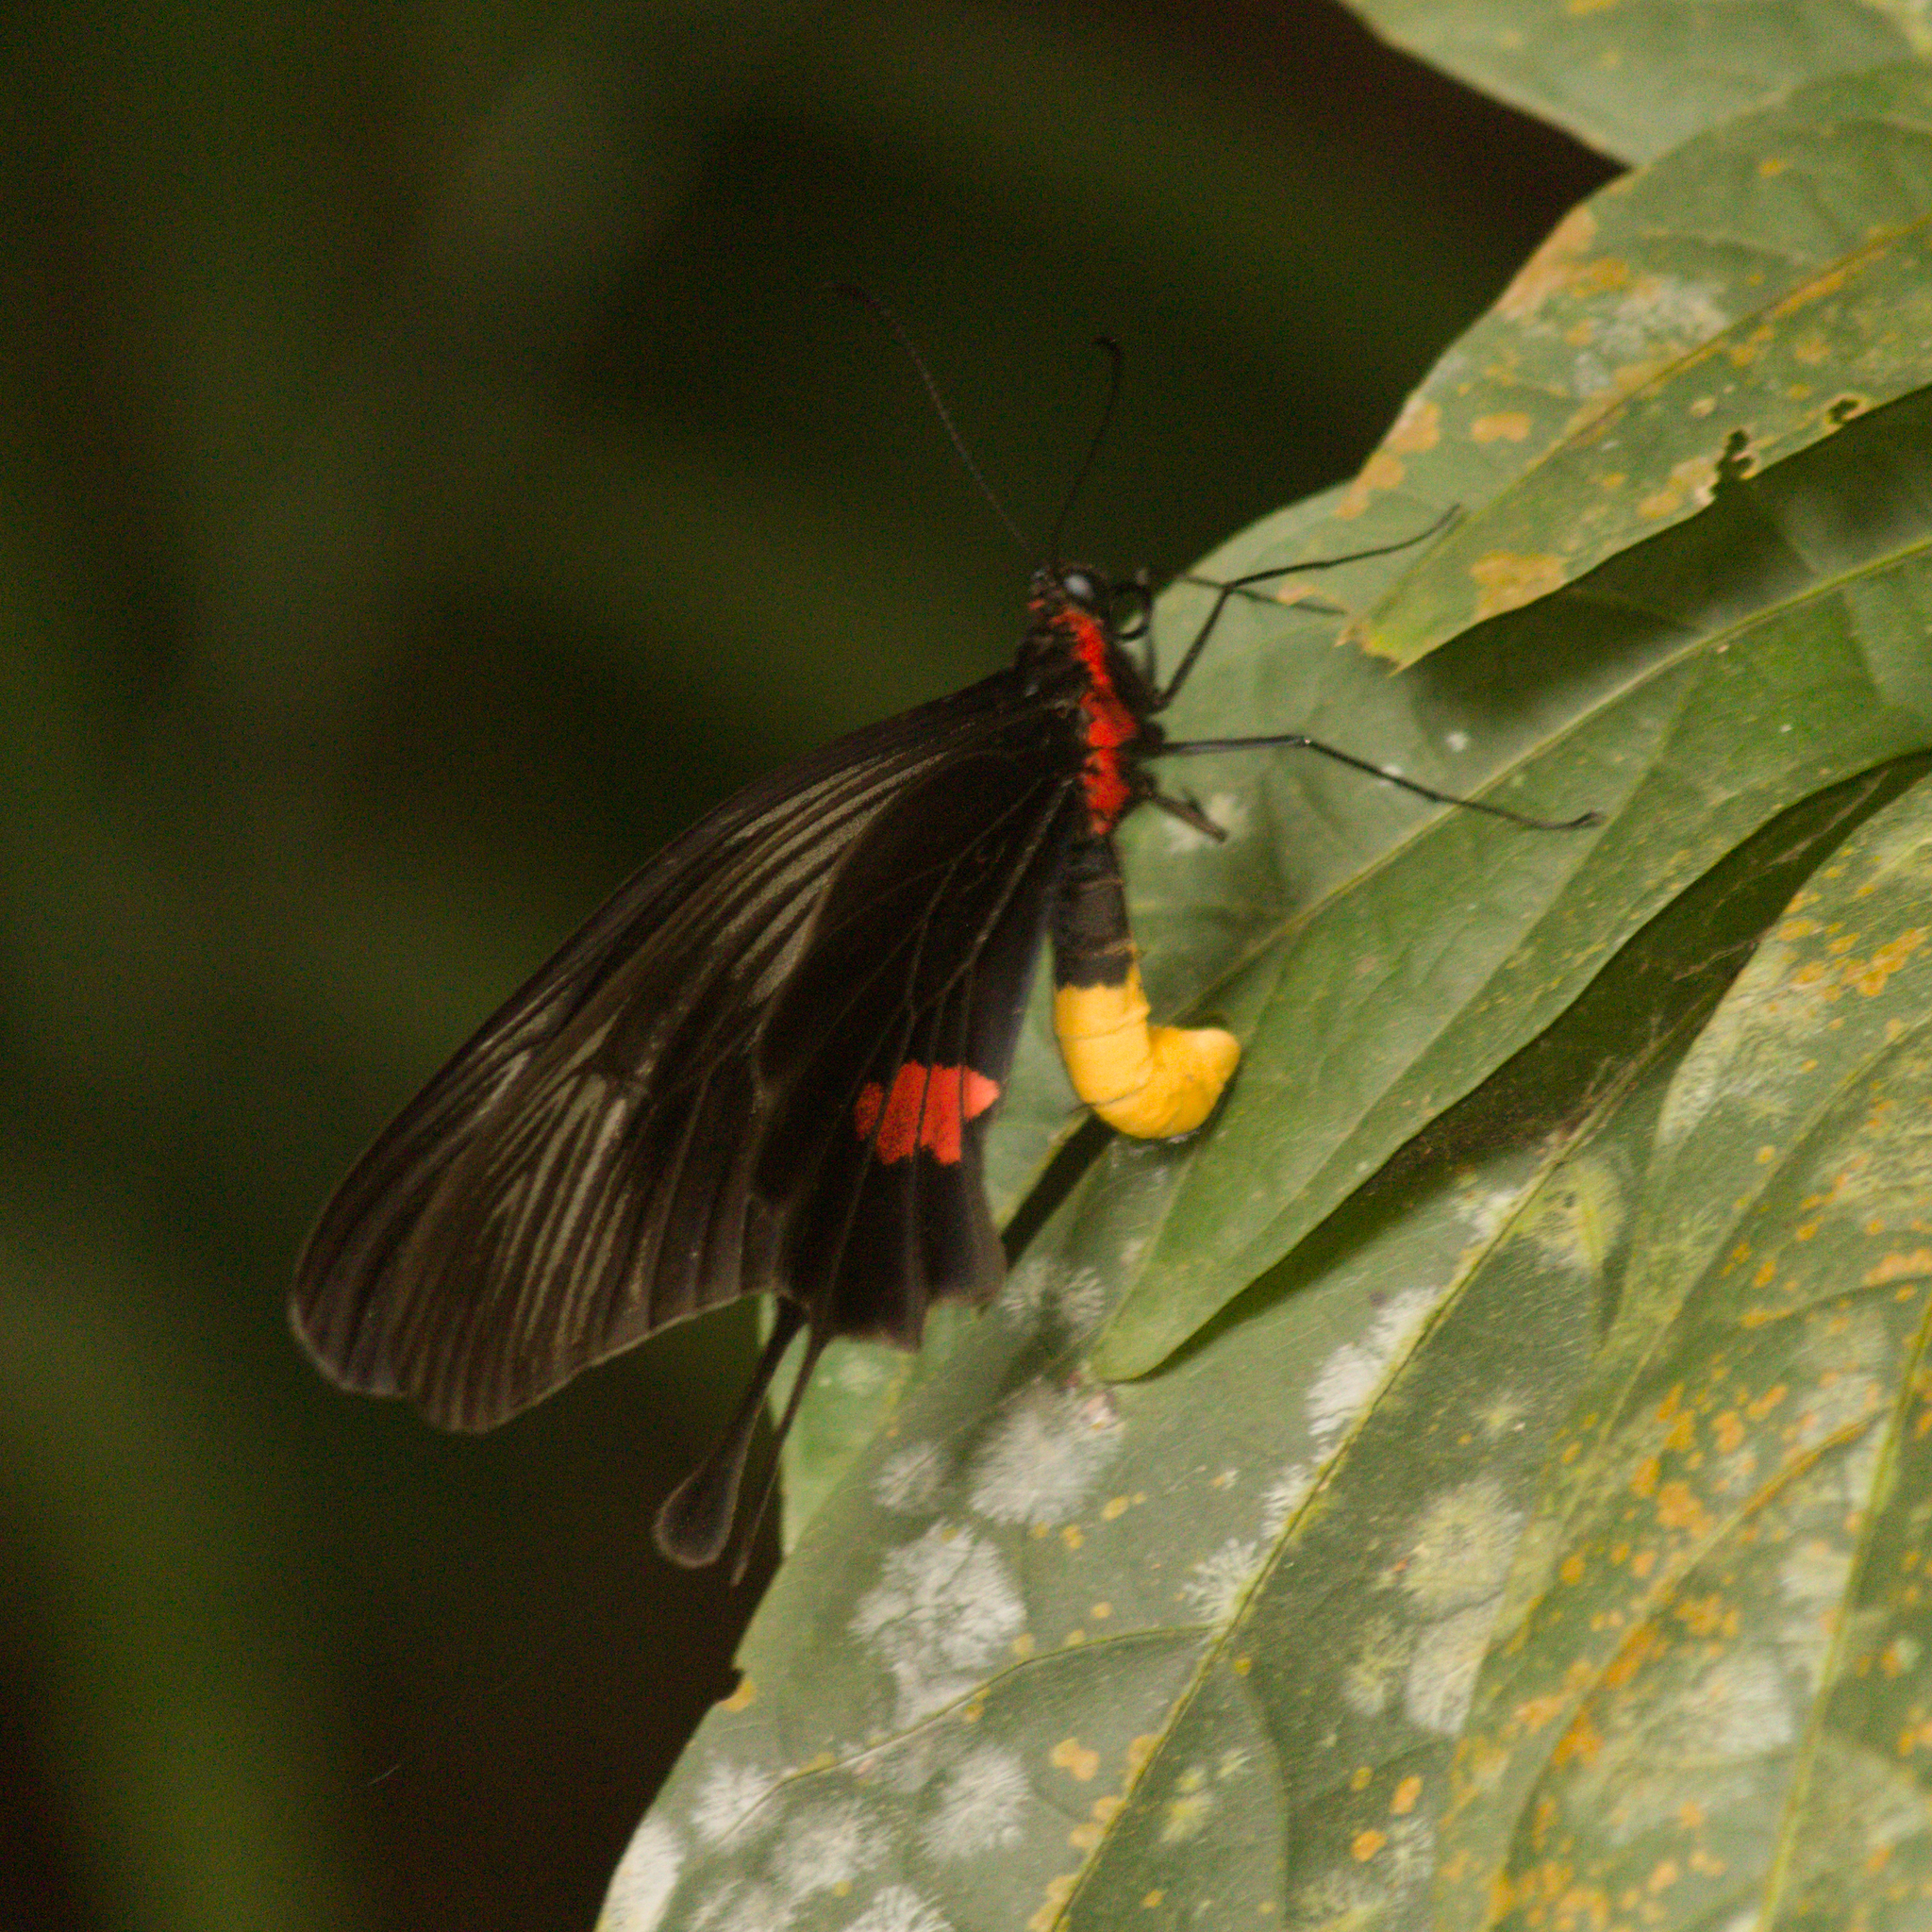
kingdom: Animalia
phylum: Arthropoda
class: Insecta
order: Lepidoptera
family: Papilionidae
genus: Losaria
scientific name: Losaria neptunus
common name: Yellow-bodied clubtail
